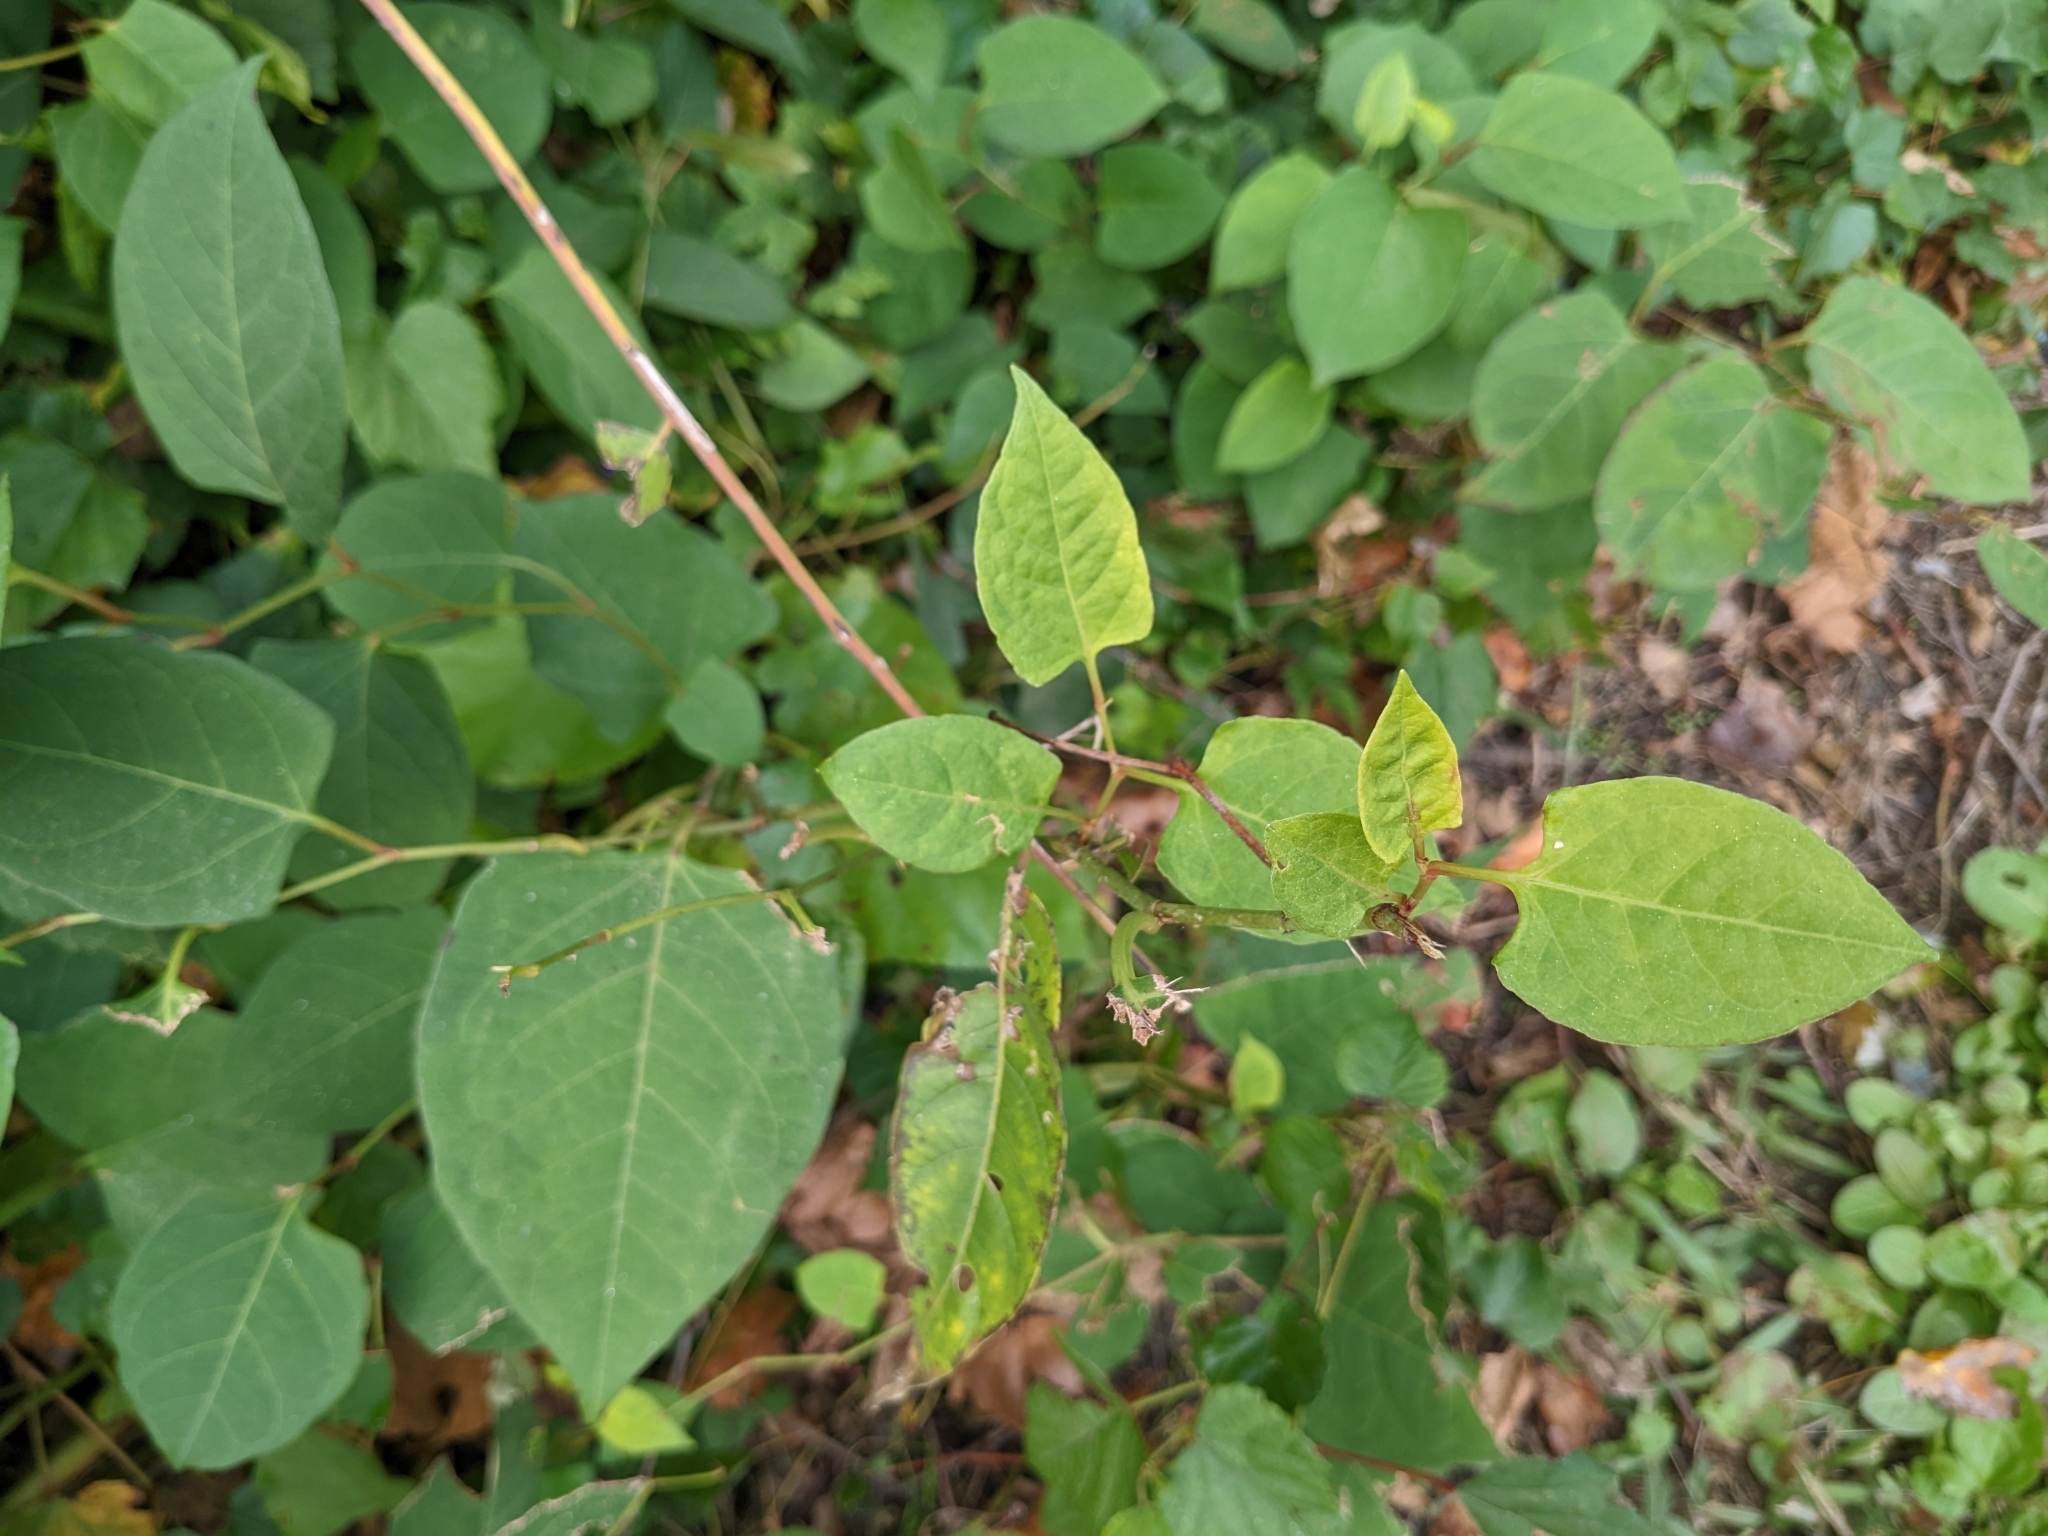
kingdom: Plantae
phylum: Tracheophyta
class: Magnoliopsida
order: Caryophyllales
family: Polygonaceae
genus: Reynoutria
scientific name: Reynoutria japonica
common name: Japanese knotweed
